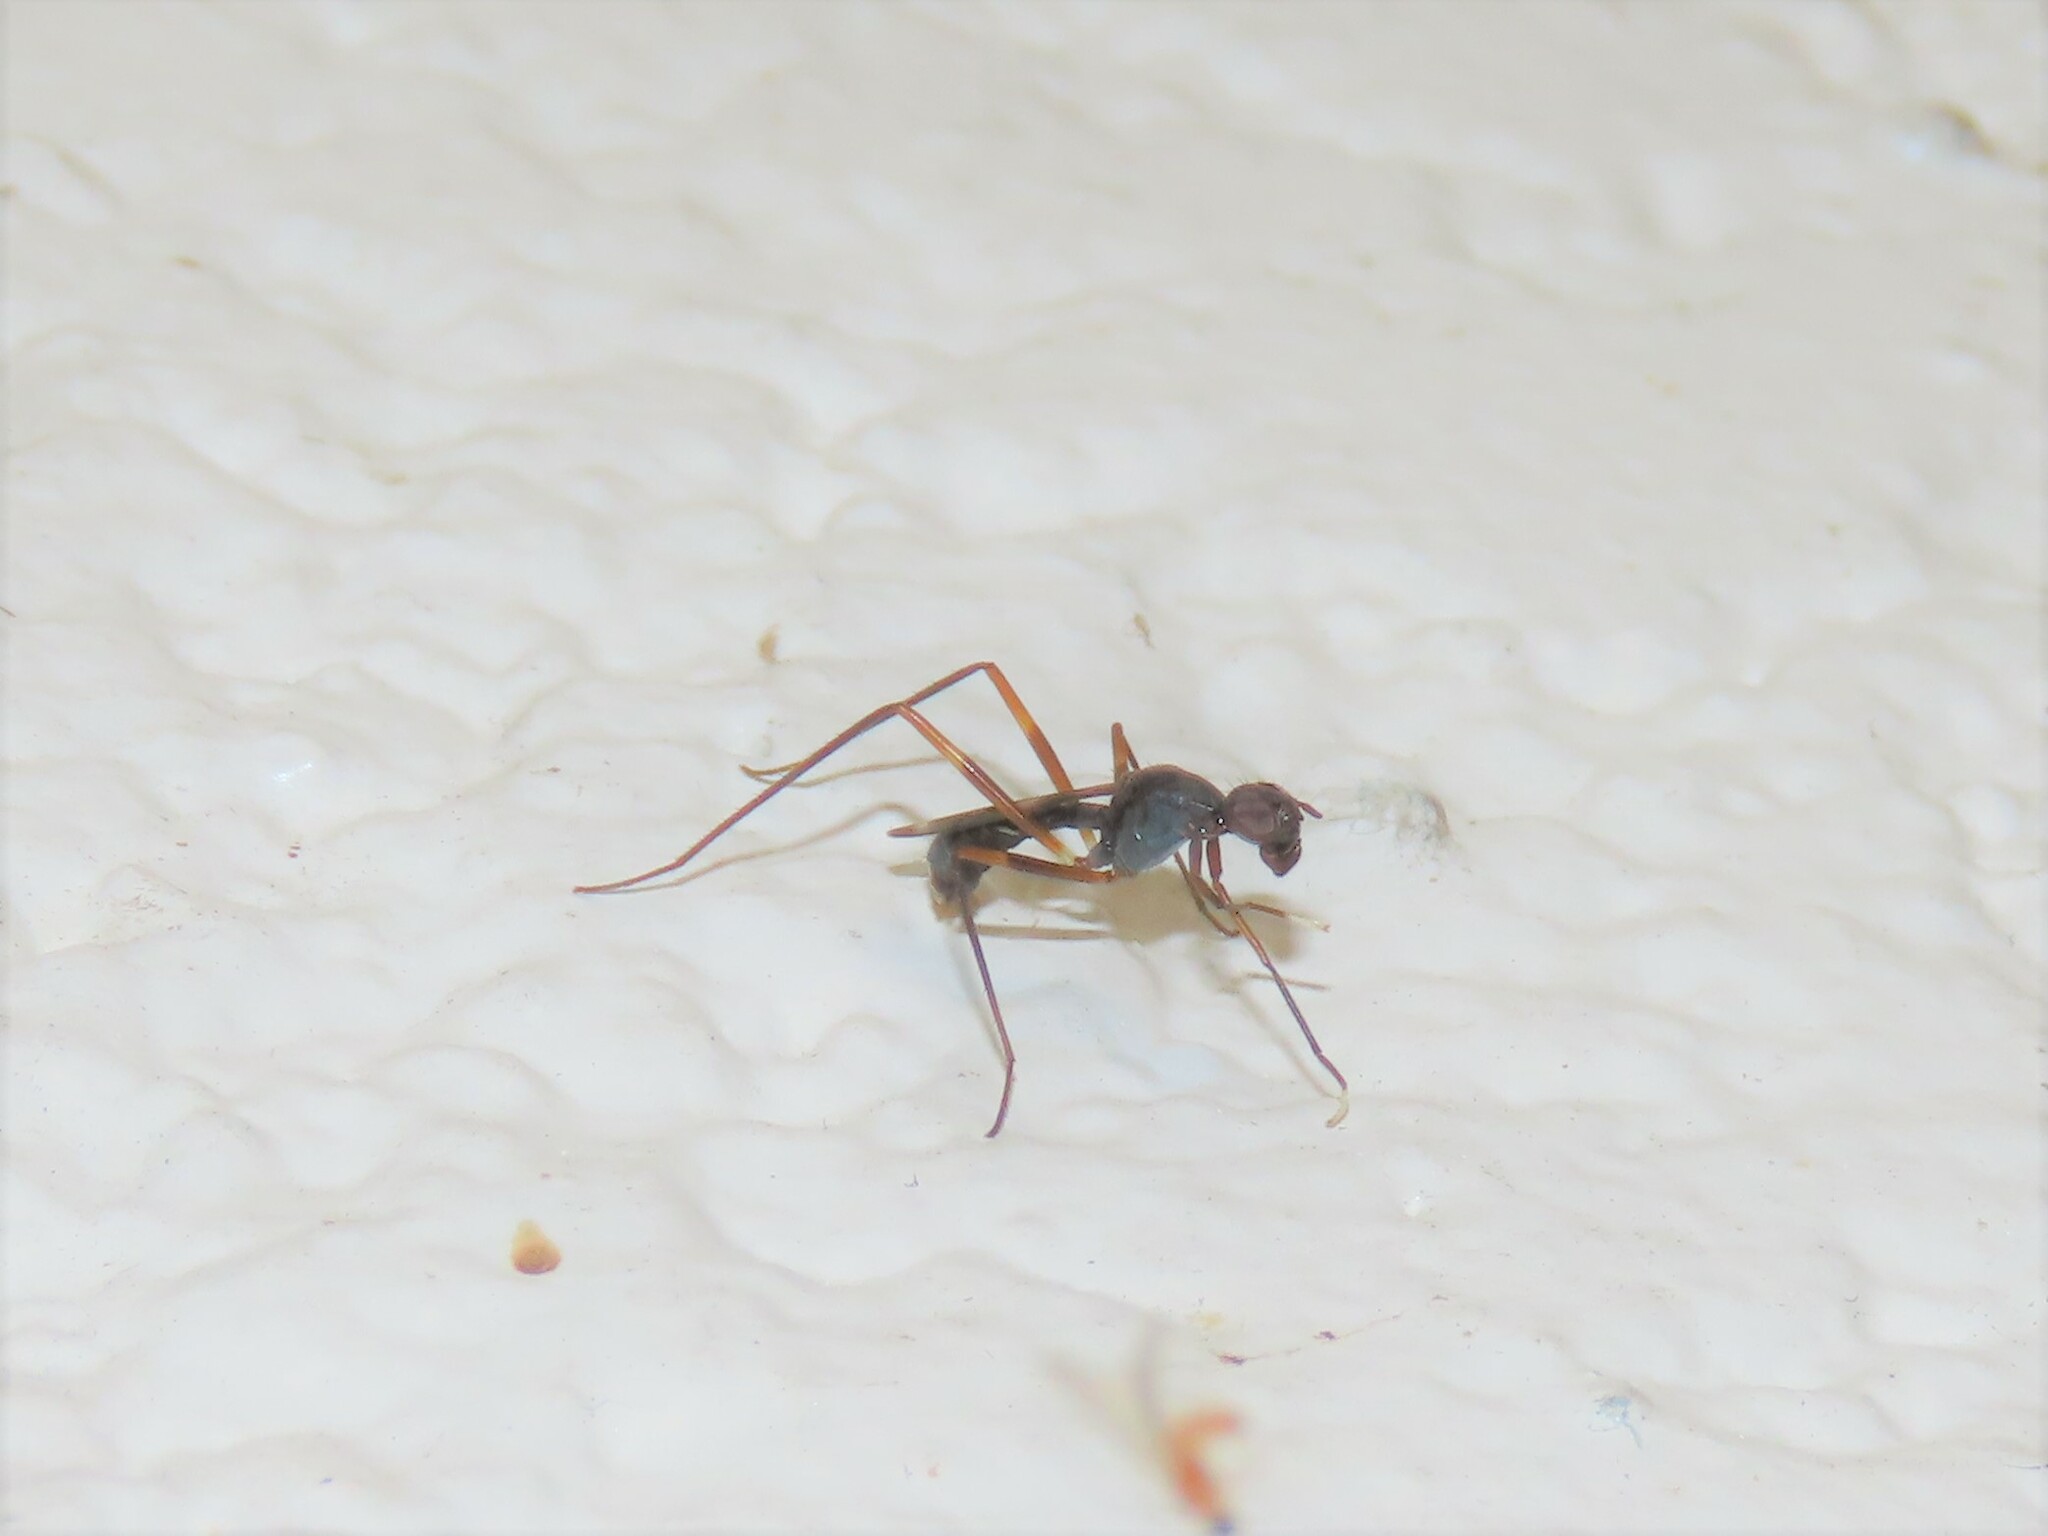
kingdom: Animalia
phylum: Arthropoda
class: Insecta
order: Diptera
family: Micropezidae
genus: Taeniaptera
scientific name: Taeniaptera trivittata
